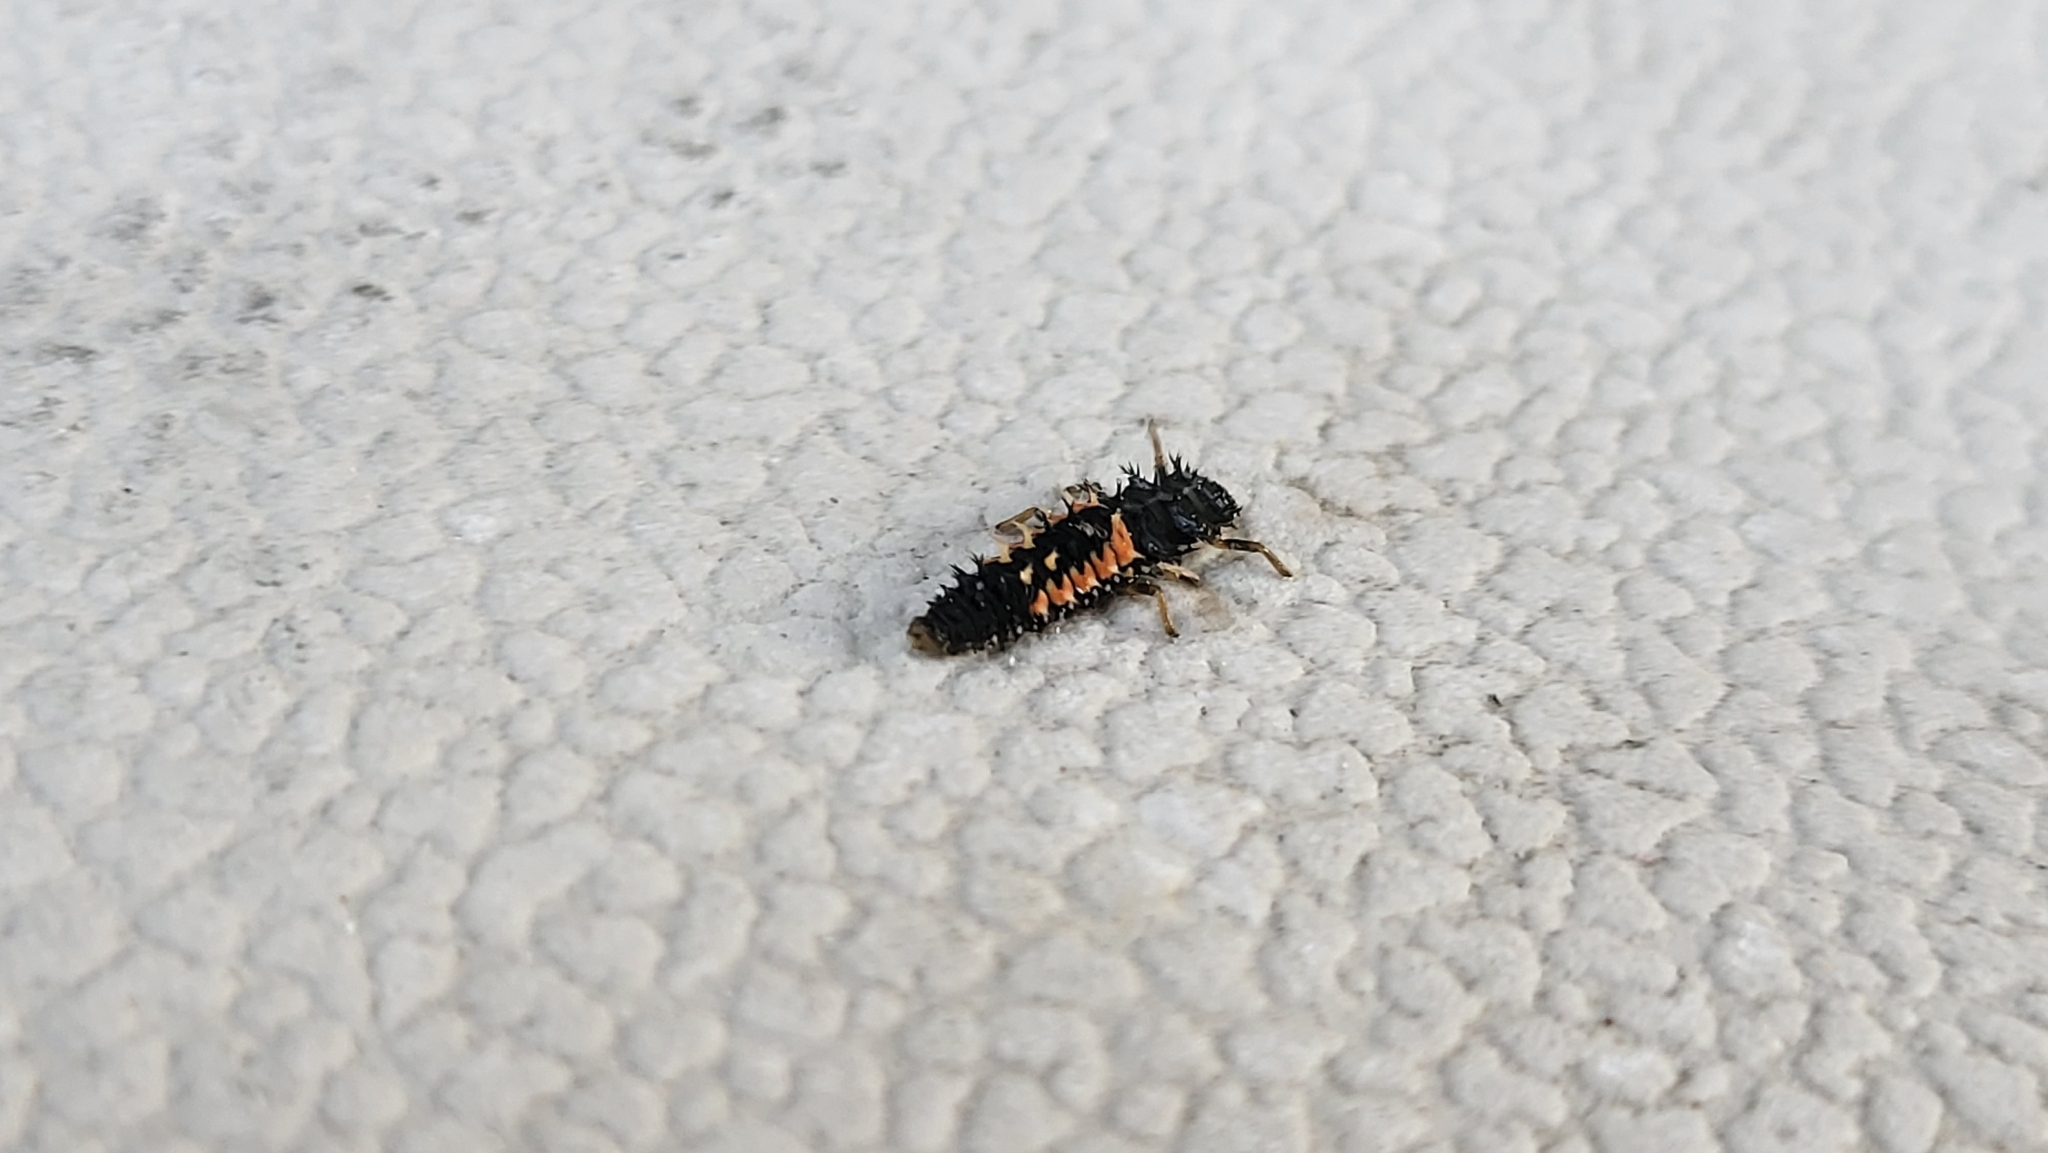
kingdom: Animalia
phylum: Arthropoda
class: Insecta
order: Coleoptera
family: Coccinellidae
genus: Harmonia
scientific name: Harmonia axyridis
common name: Harlequin ladybird
